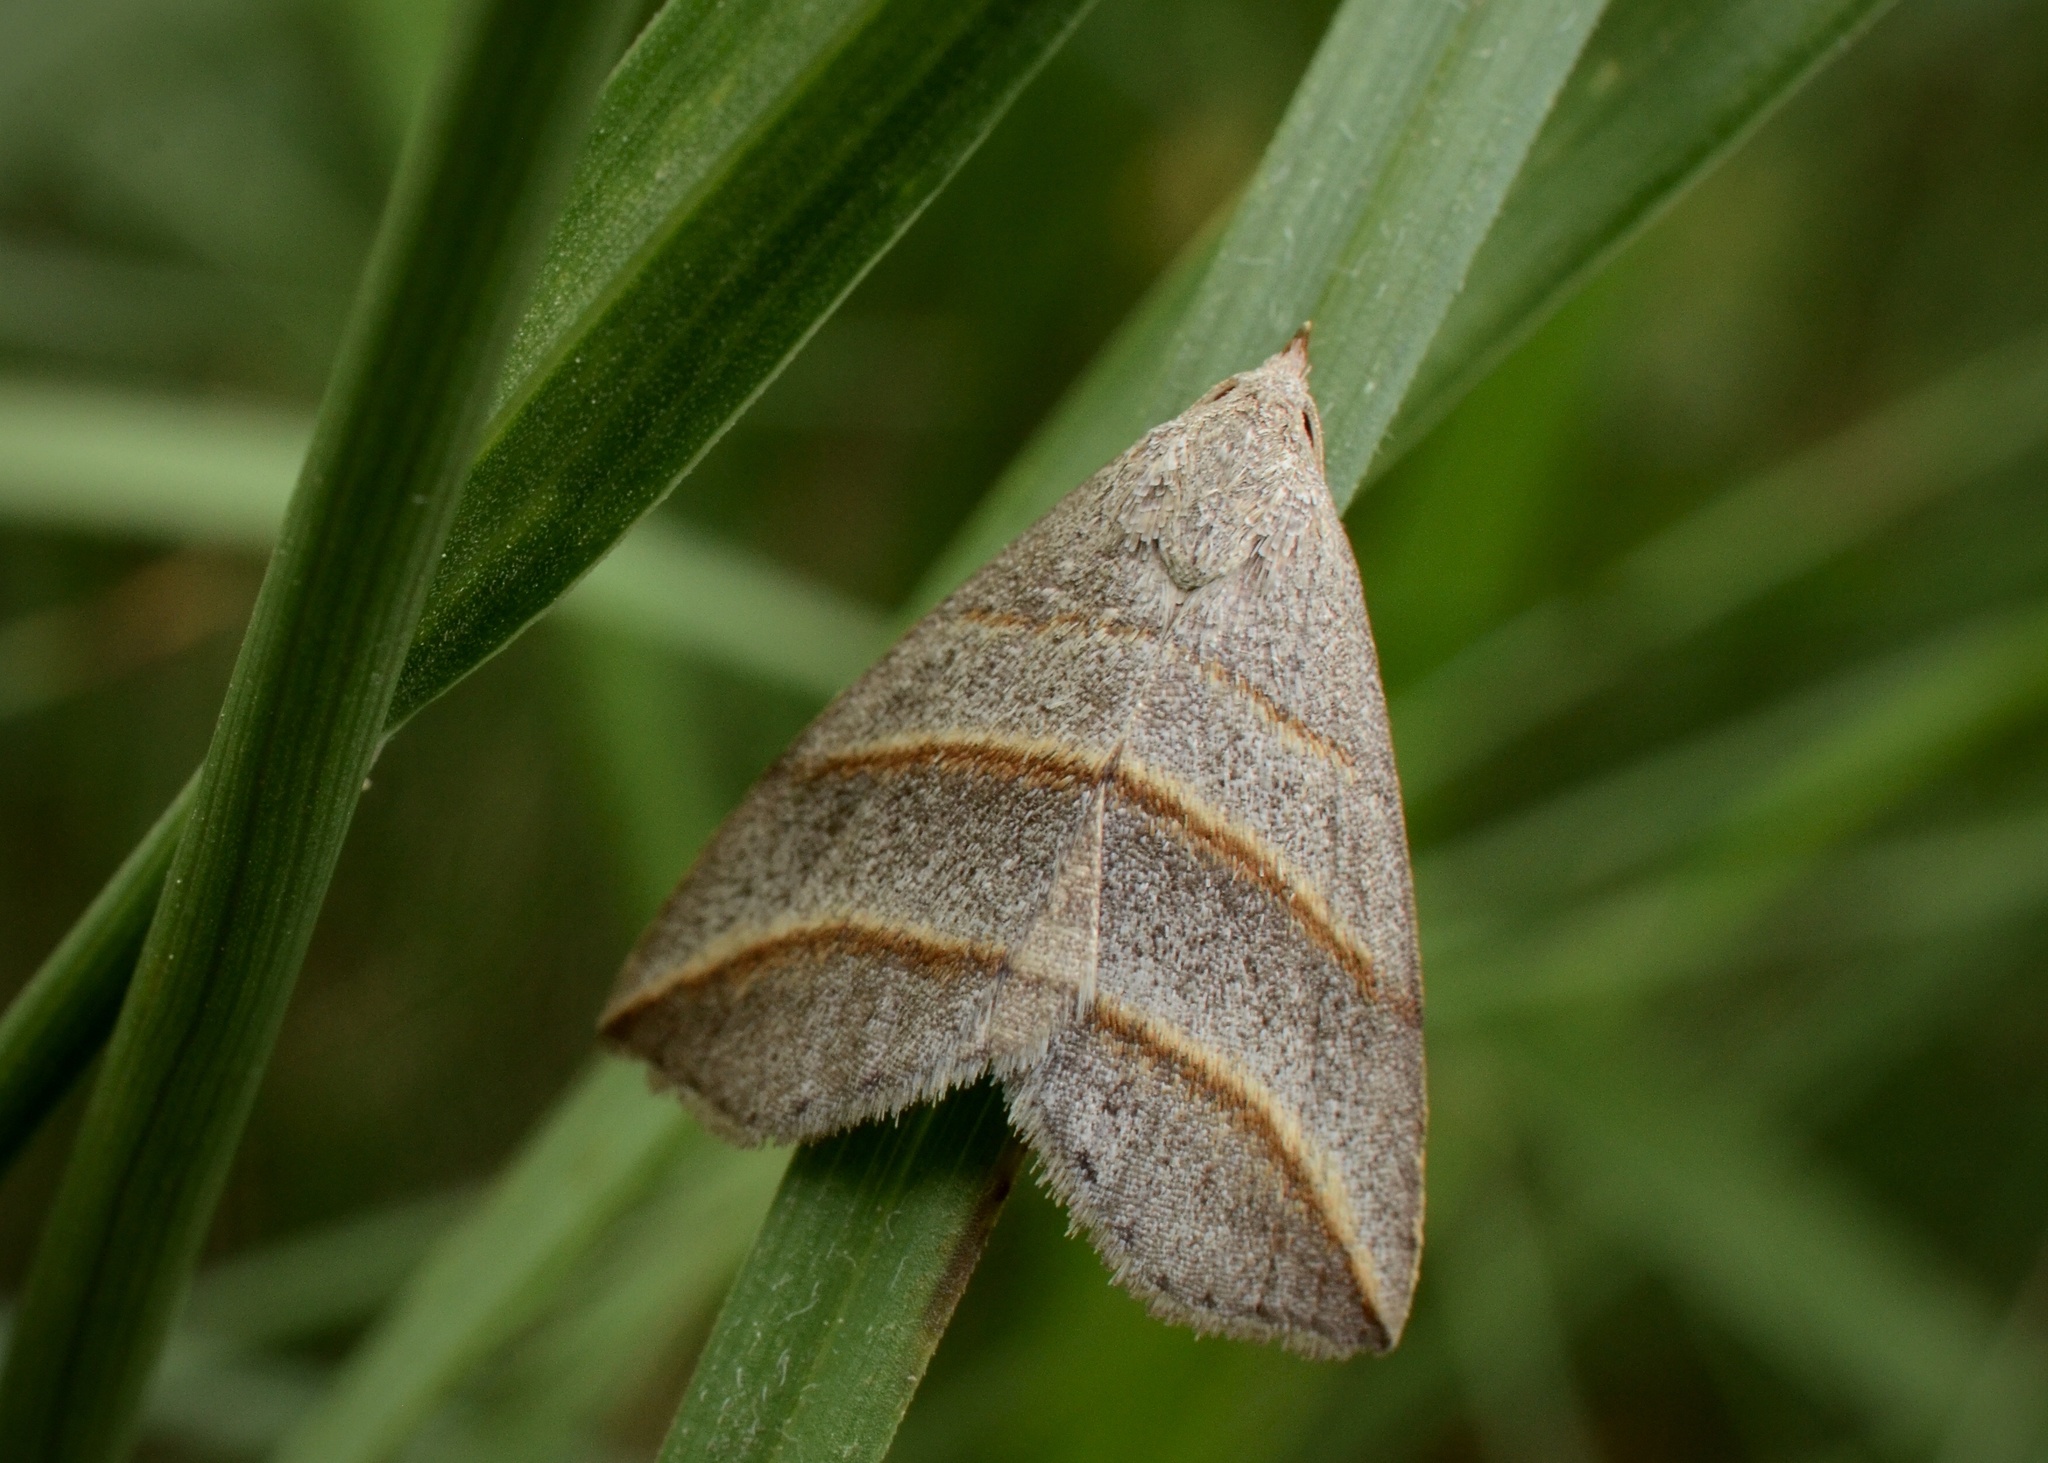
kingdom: Animalia
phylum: Arthropoda
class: Insecta
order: Lepidoptera
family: Erebidae
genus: Colobochyla
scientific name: Colobochyla salicalis
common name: Lesser belle
